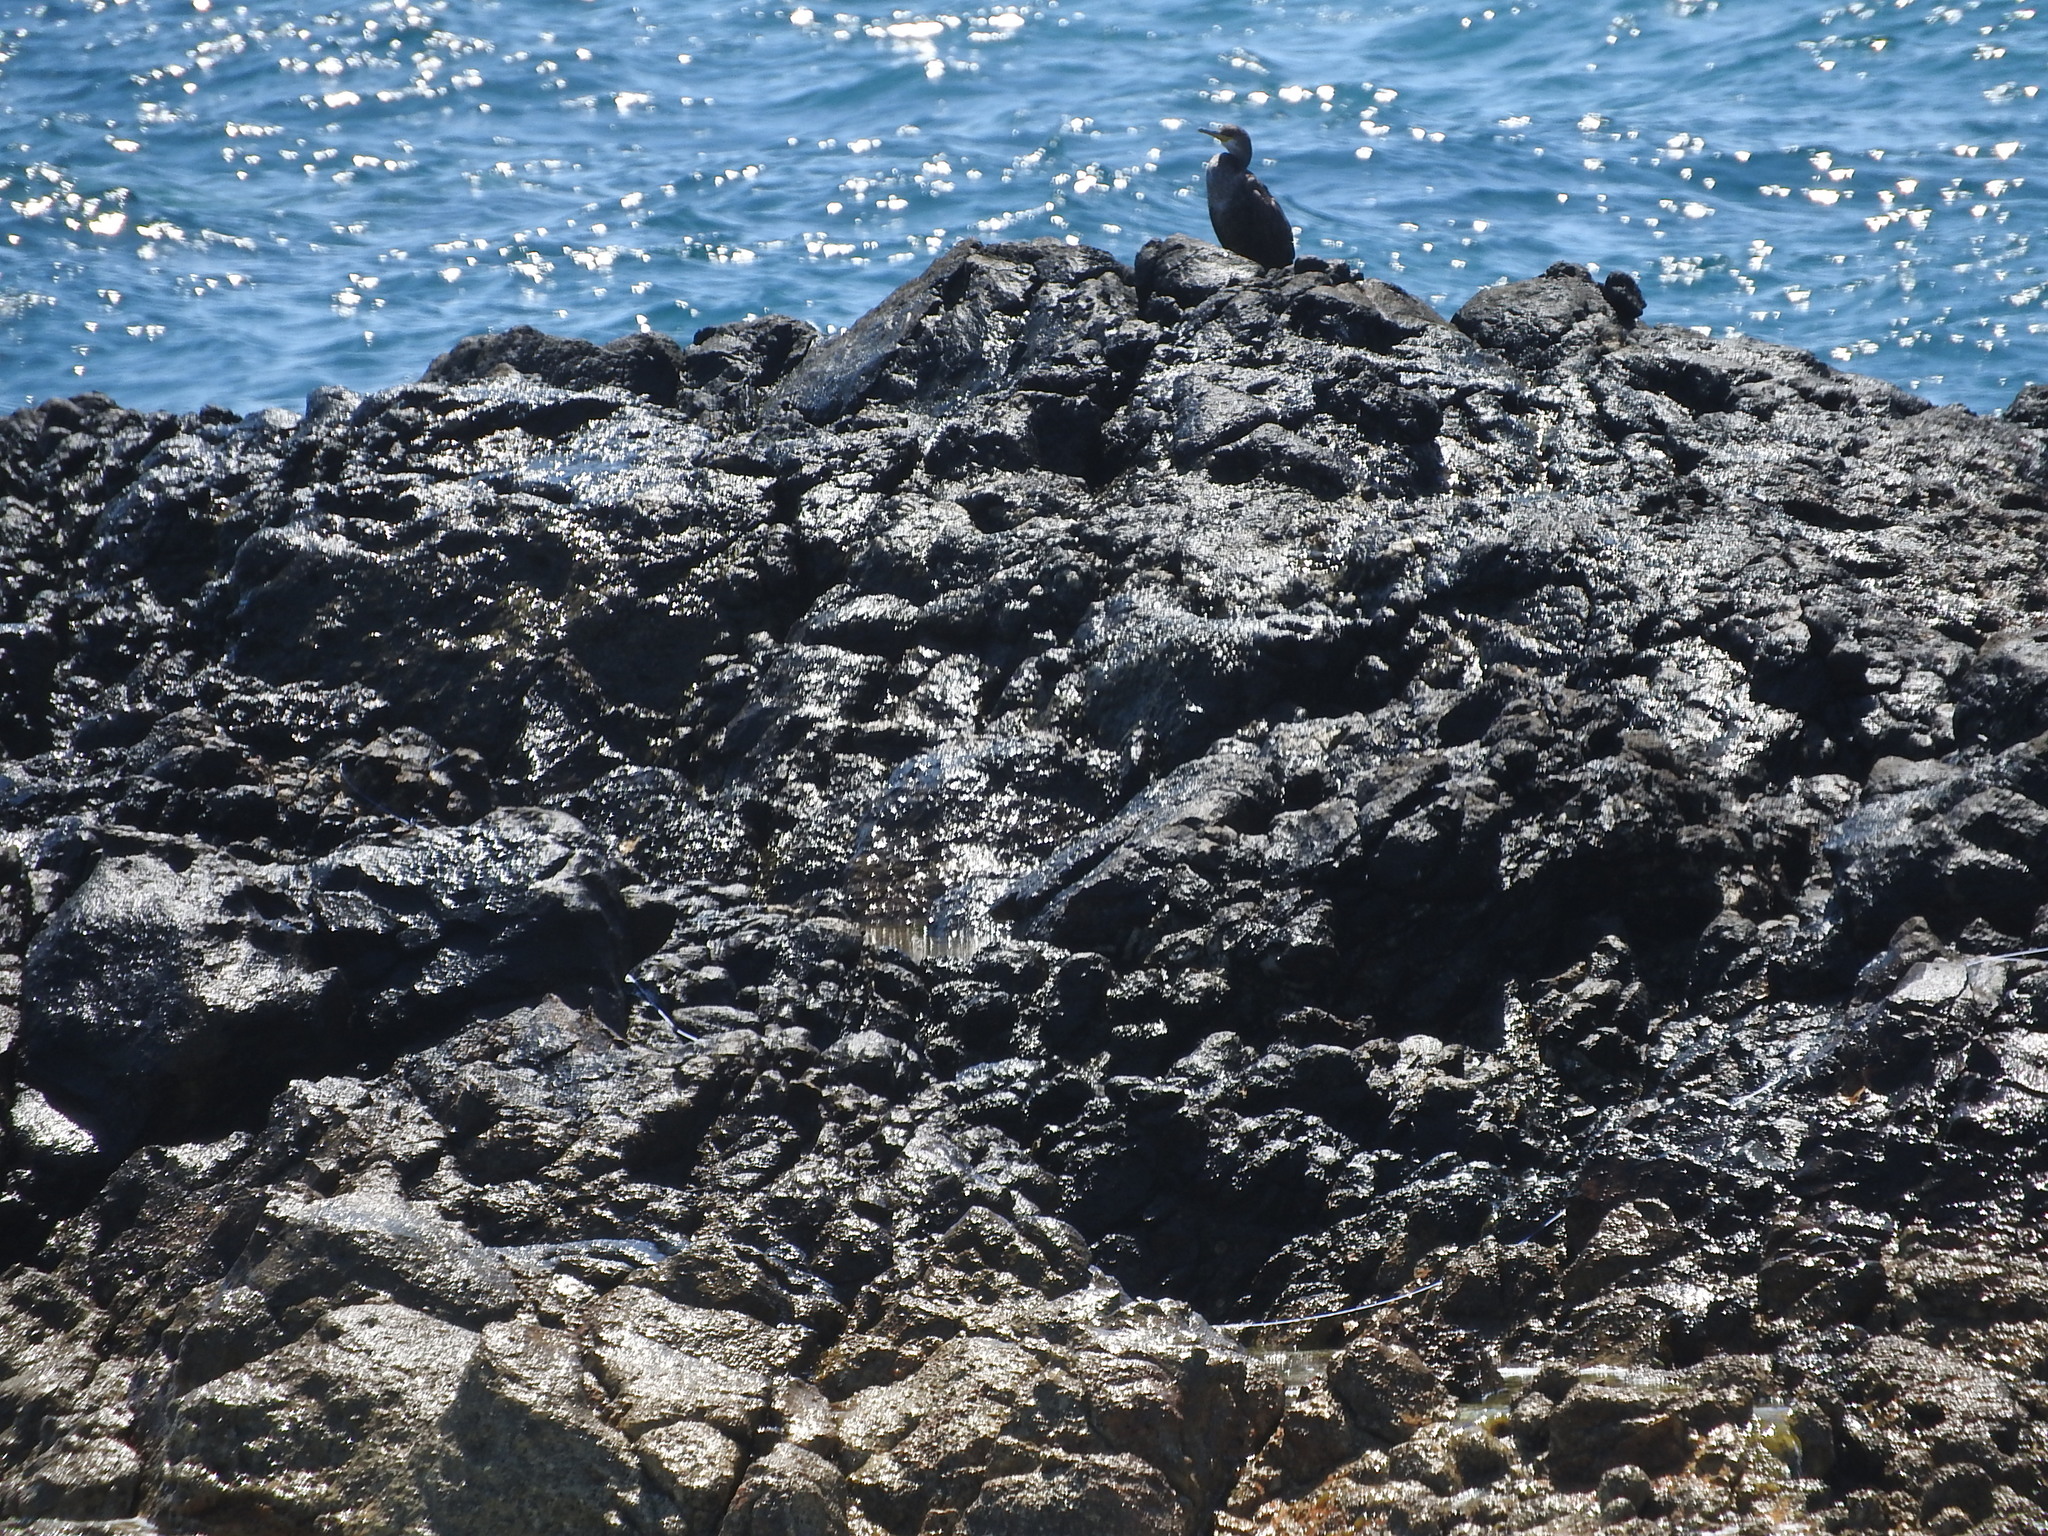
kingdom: Animalia
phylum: Chordata
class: Aves
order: Suliformes
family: Phalacrocoracidae
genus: Phalacrocorax
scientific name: Phalacrocorax aristotelis
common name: European shag
